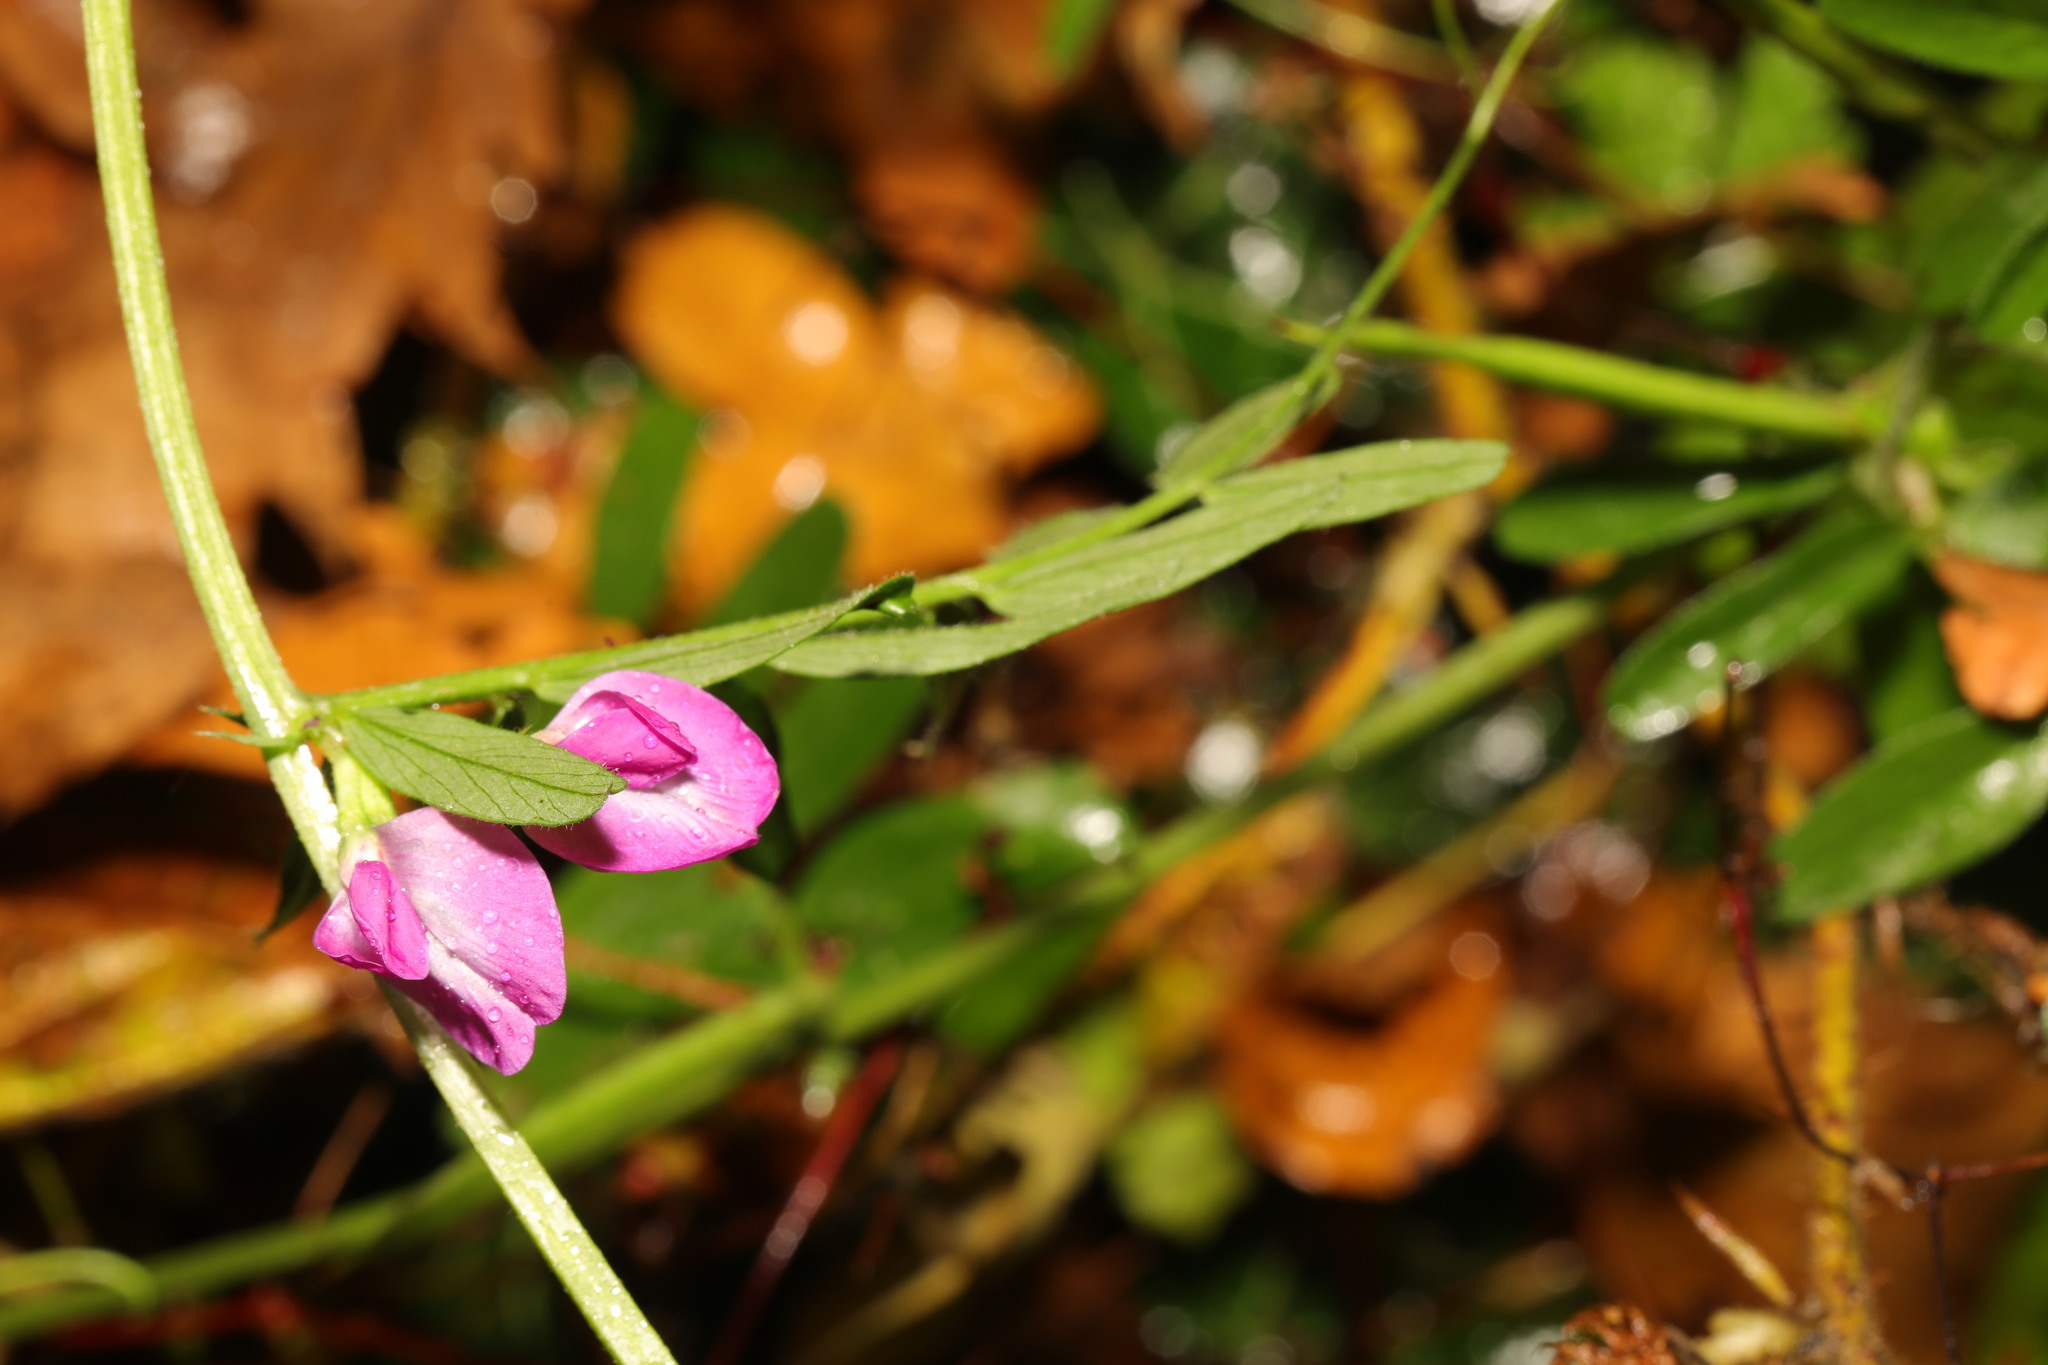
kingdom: Plantae
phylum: Tracheophyta
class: Magnoliopsida
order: Fabales
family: Fabaceae
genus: Vicia
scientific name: Vicia sativa
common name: Garden vetch
